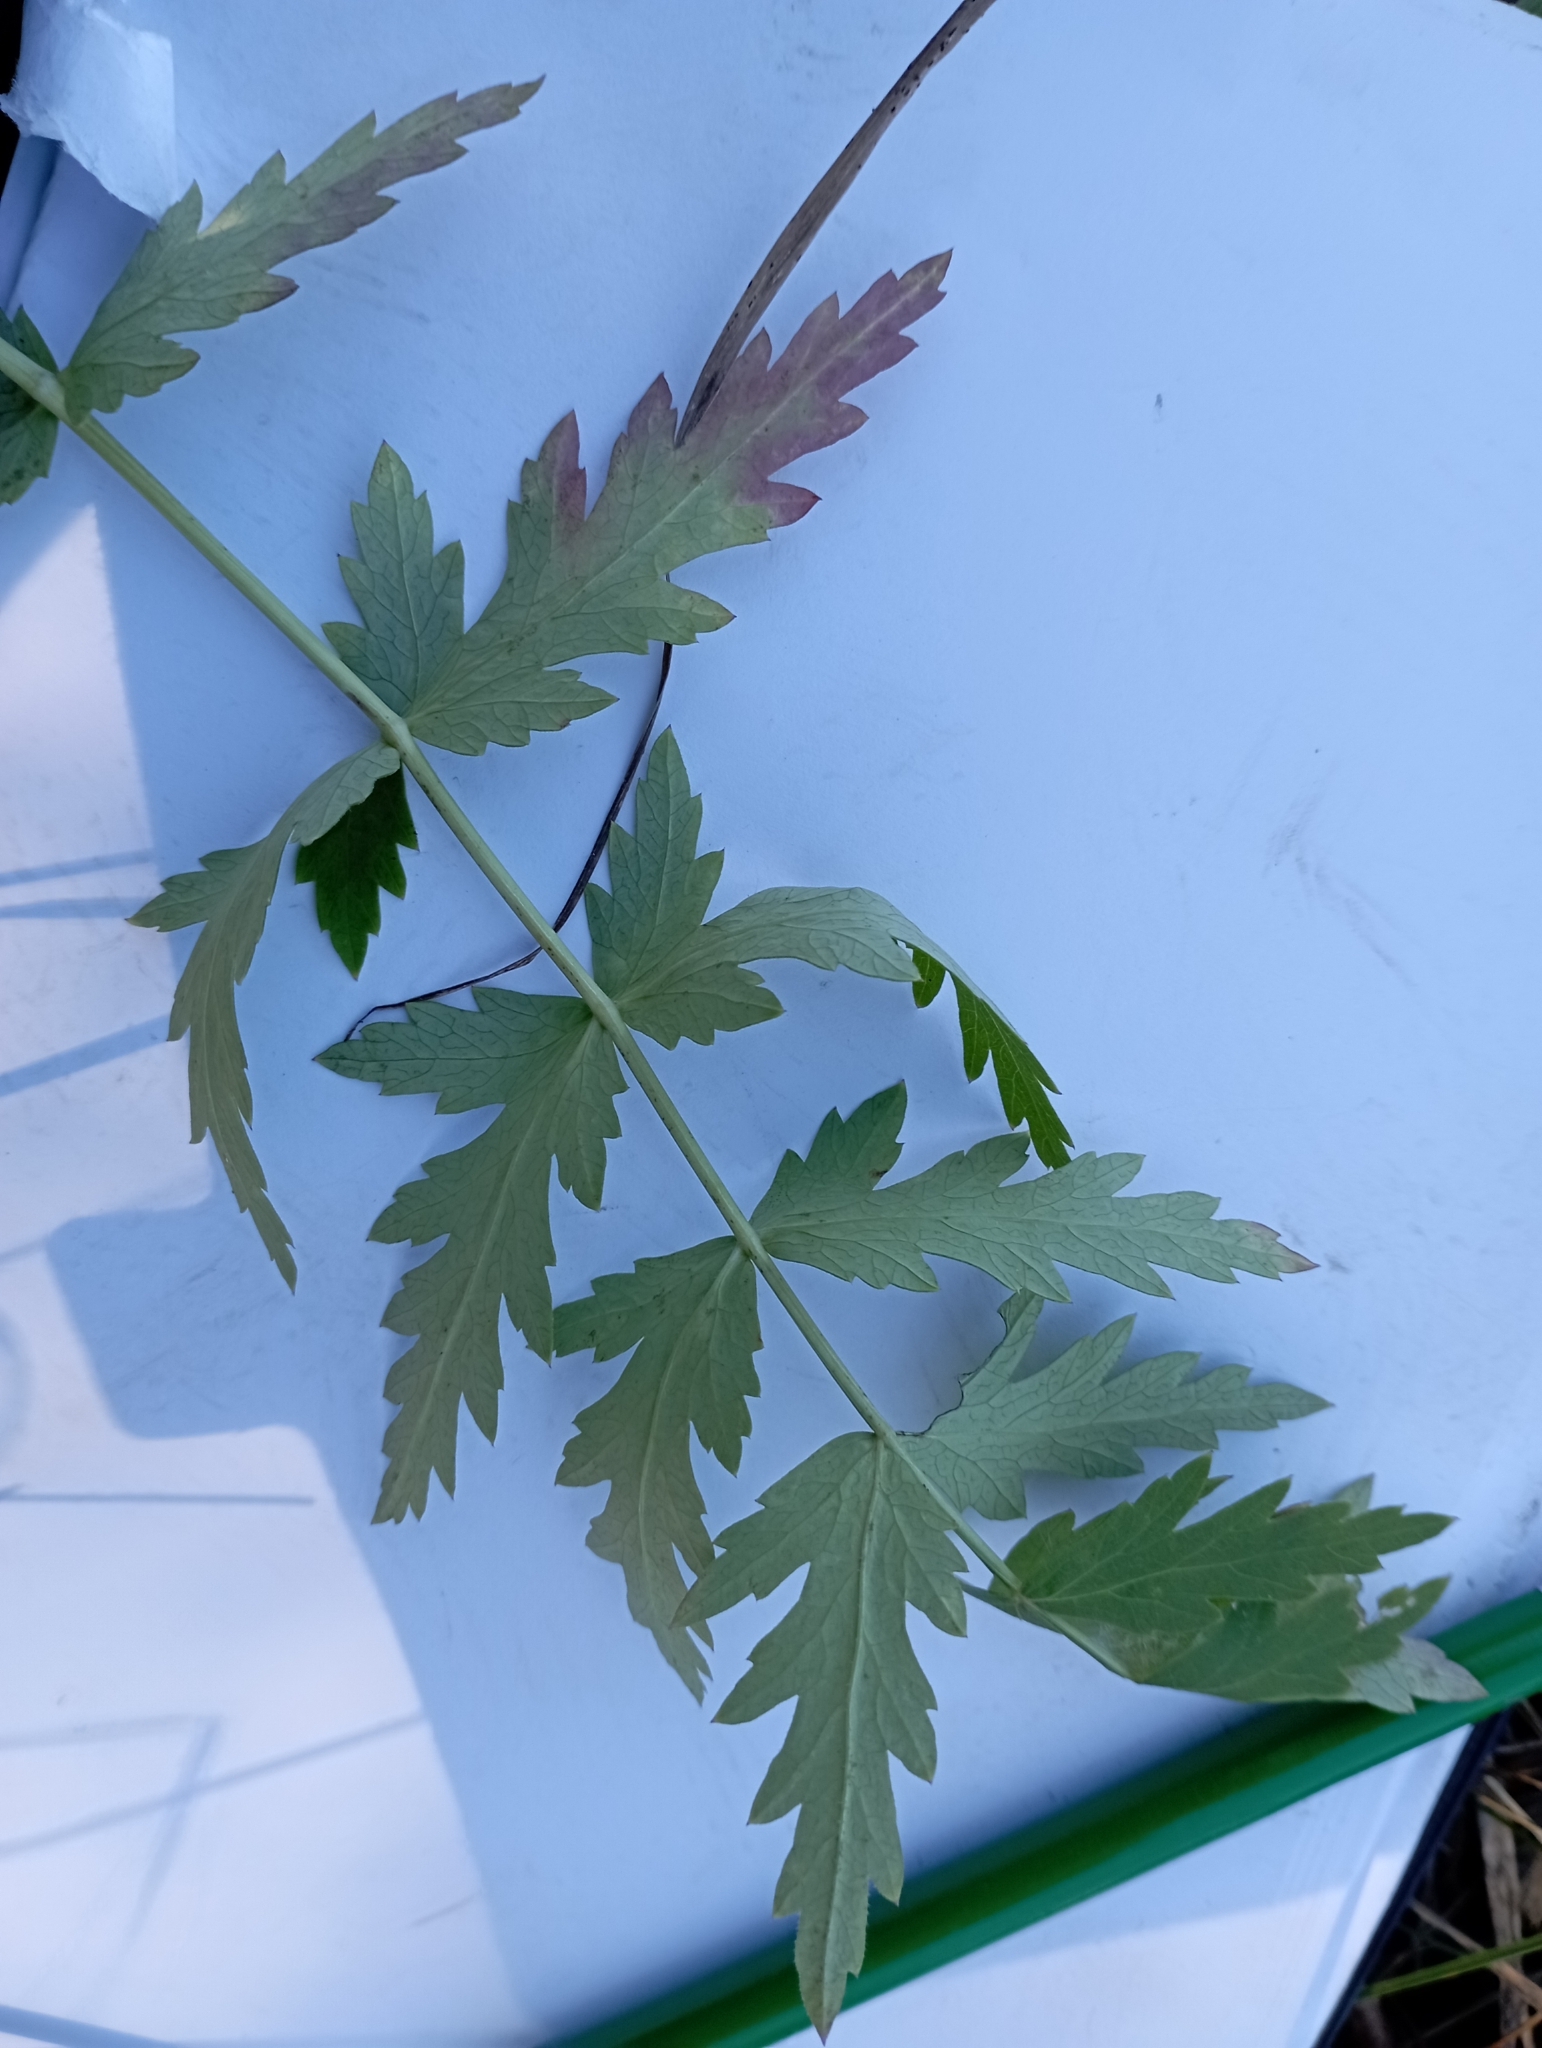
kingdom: Plantae
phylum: Tracheophyta
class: Magnoliopsida
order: Apiales
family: Apiaceae
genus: Seseli
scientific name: Seseli libanotis
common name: Mooncarrot
